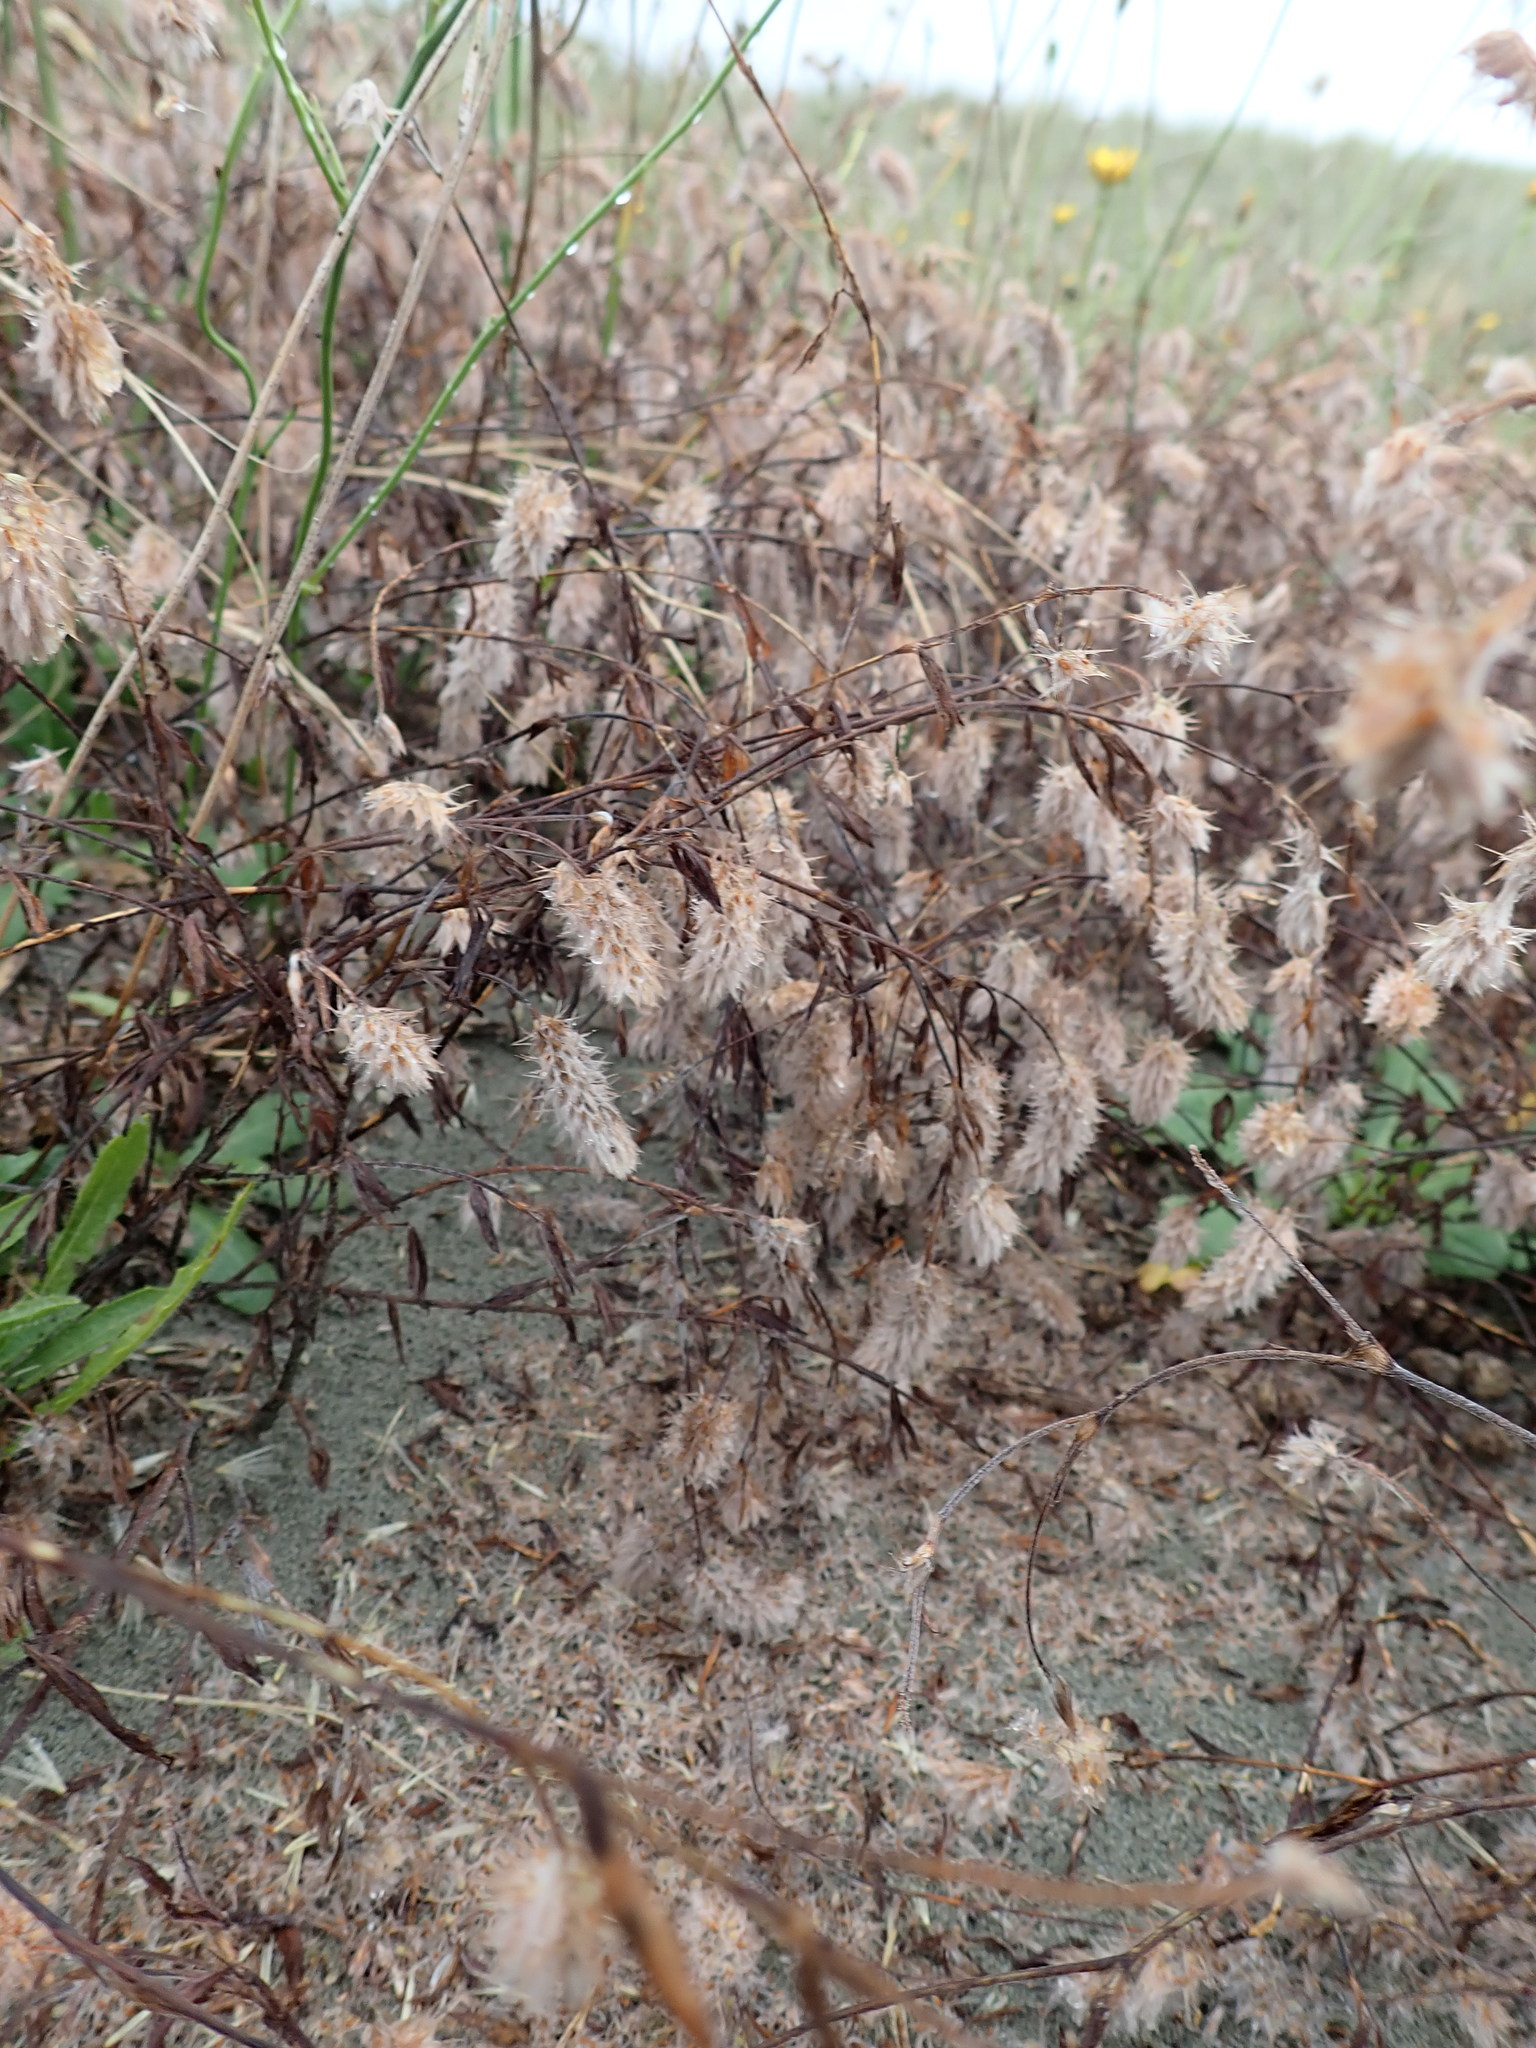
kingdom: Plantae
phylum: Tracheophyta
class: Magnoliopsida
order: Fabales
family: Fabaceae
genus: Trifolium
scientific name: Trifolium arvense
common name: Hare's-foot clover
